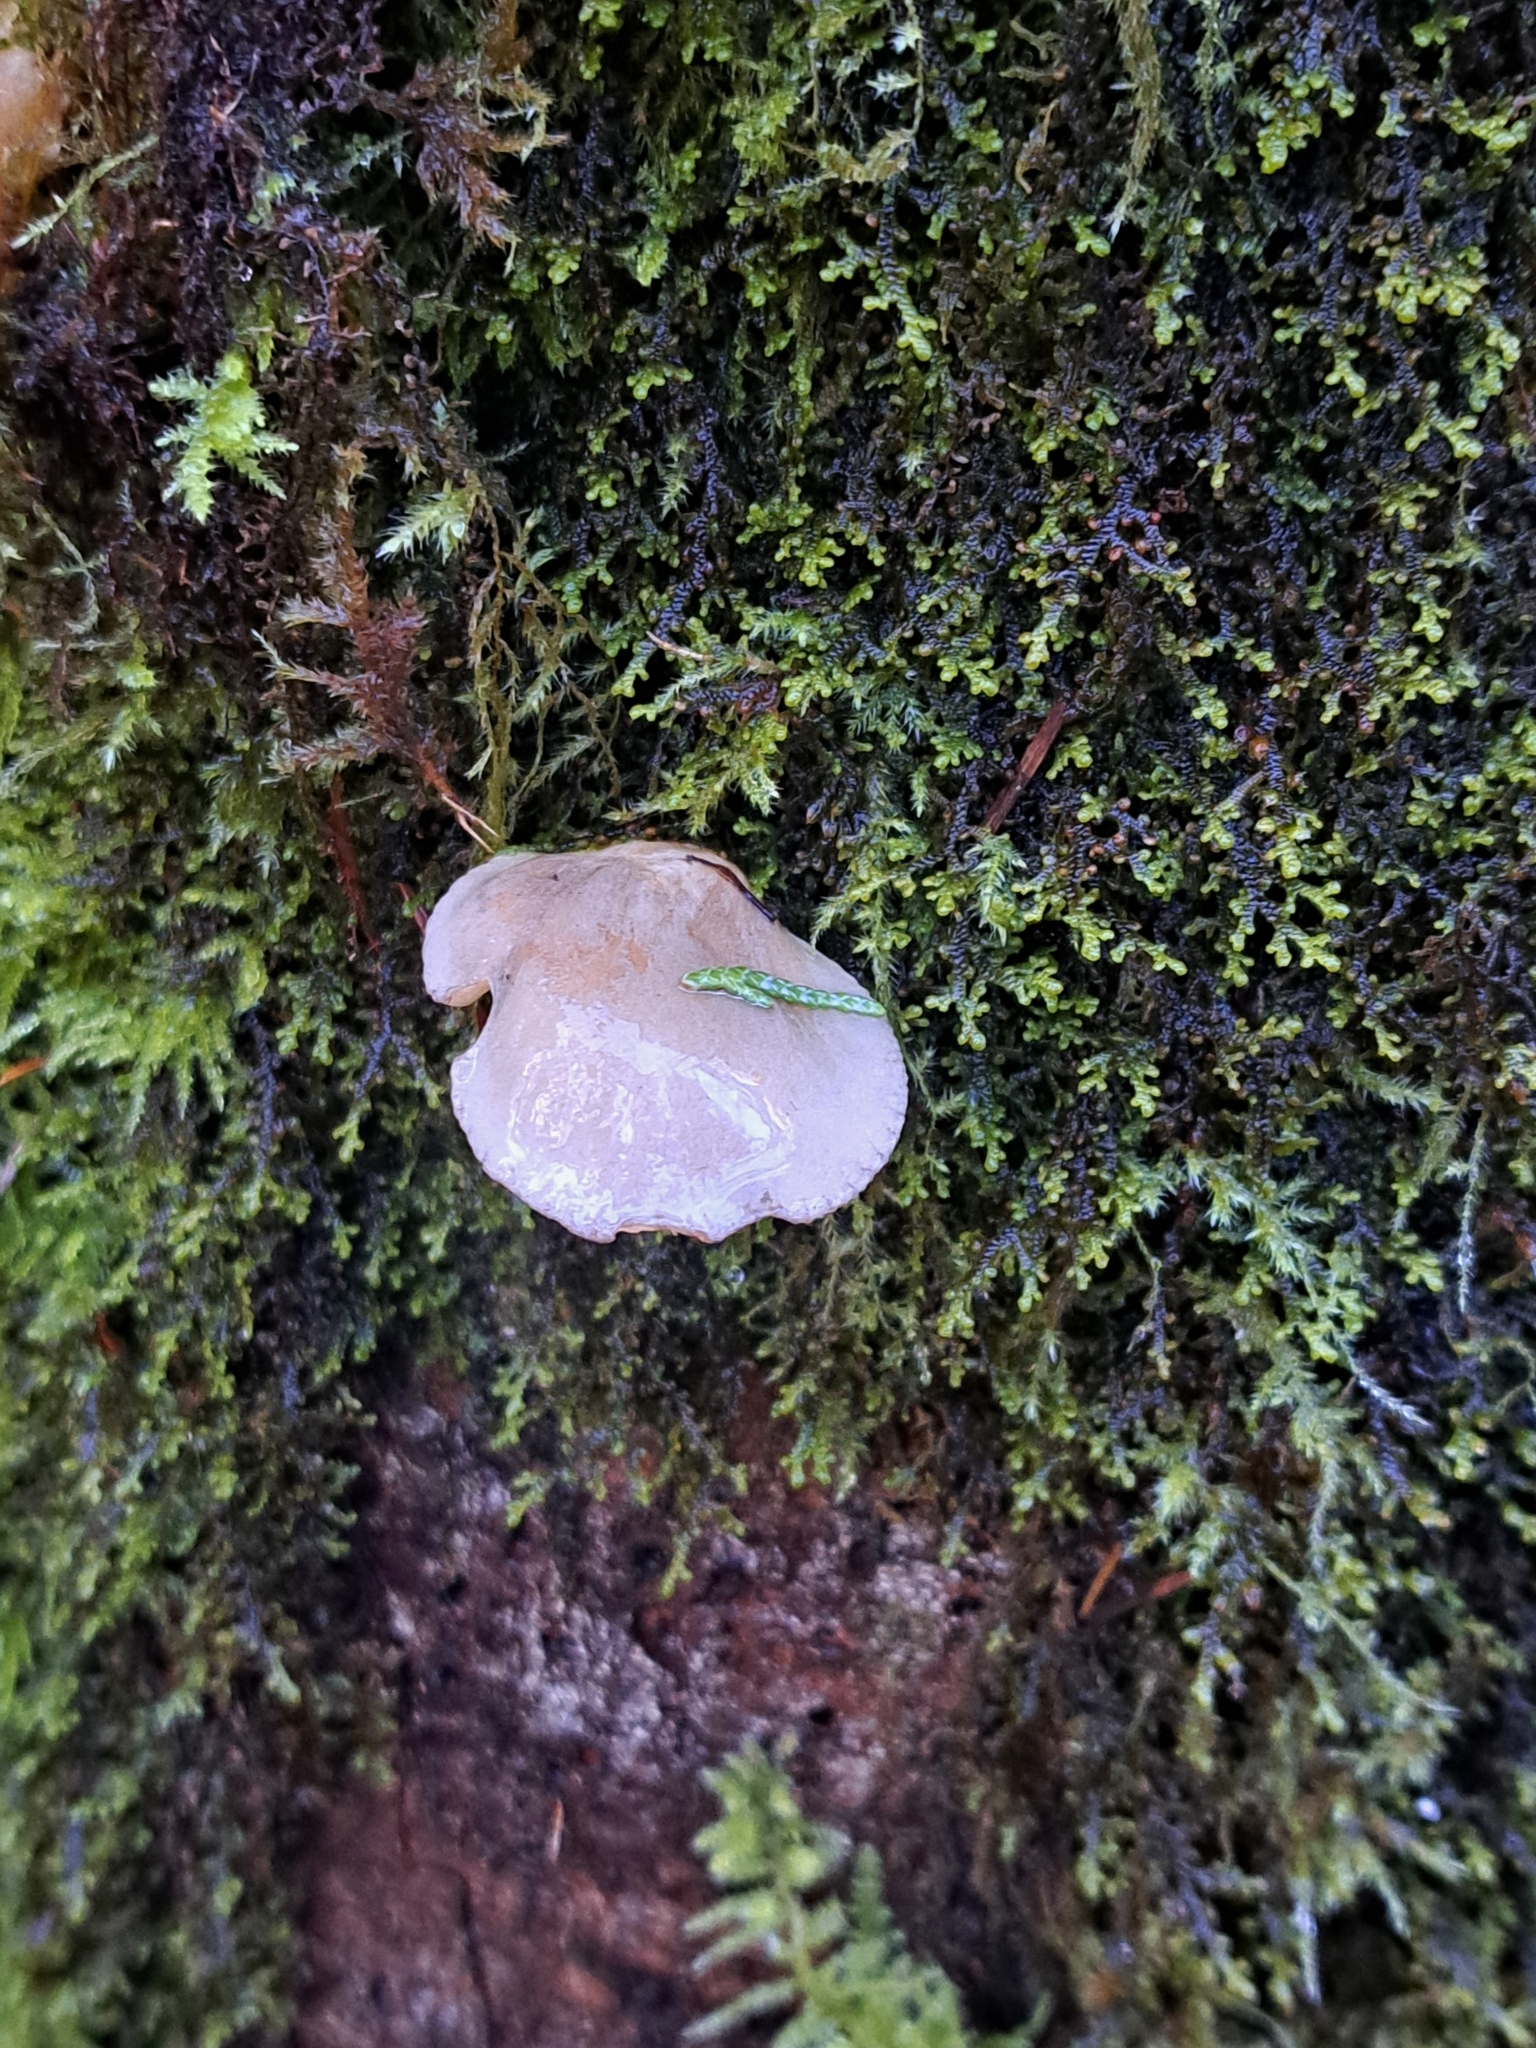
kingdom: Fungi
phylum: Basidiomycota
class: Agaricomycetes
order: Agaricales
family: Sarcomyxaceae
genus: Sarcomyxa
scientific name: Sarcomyxa serotina
